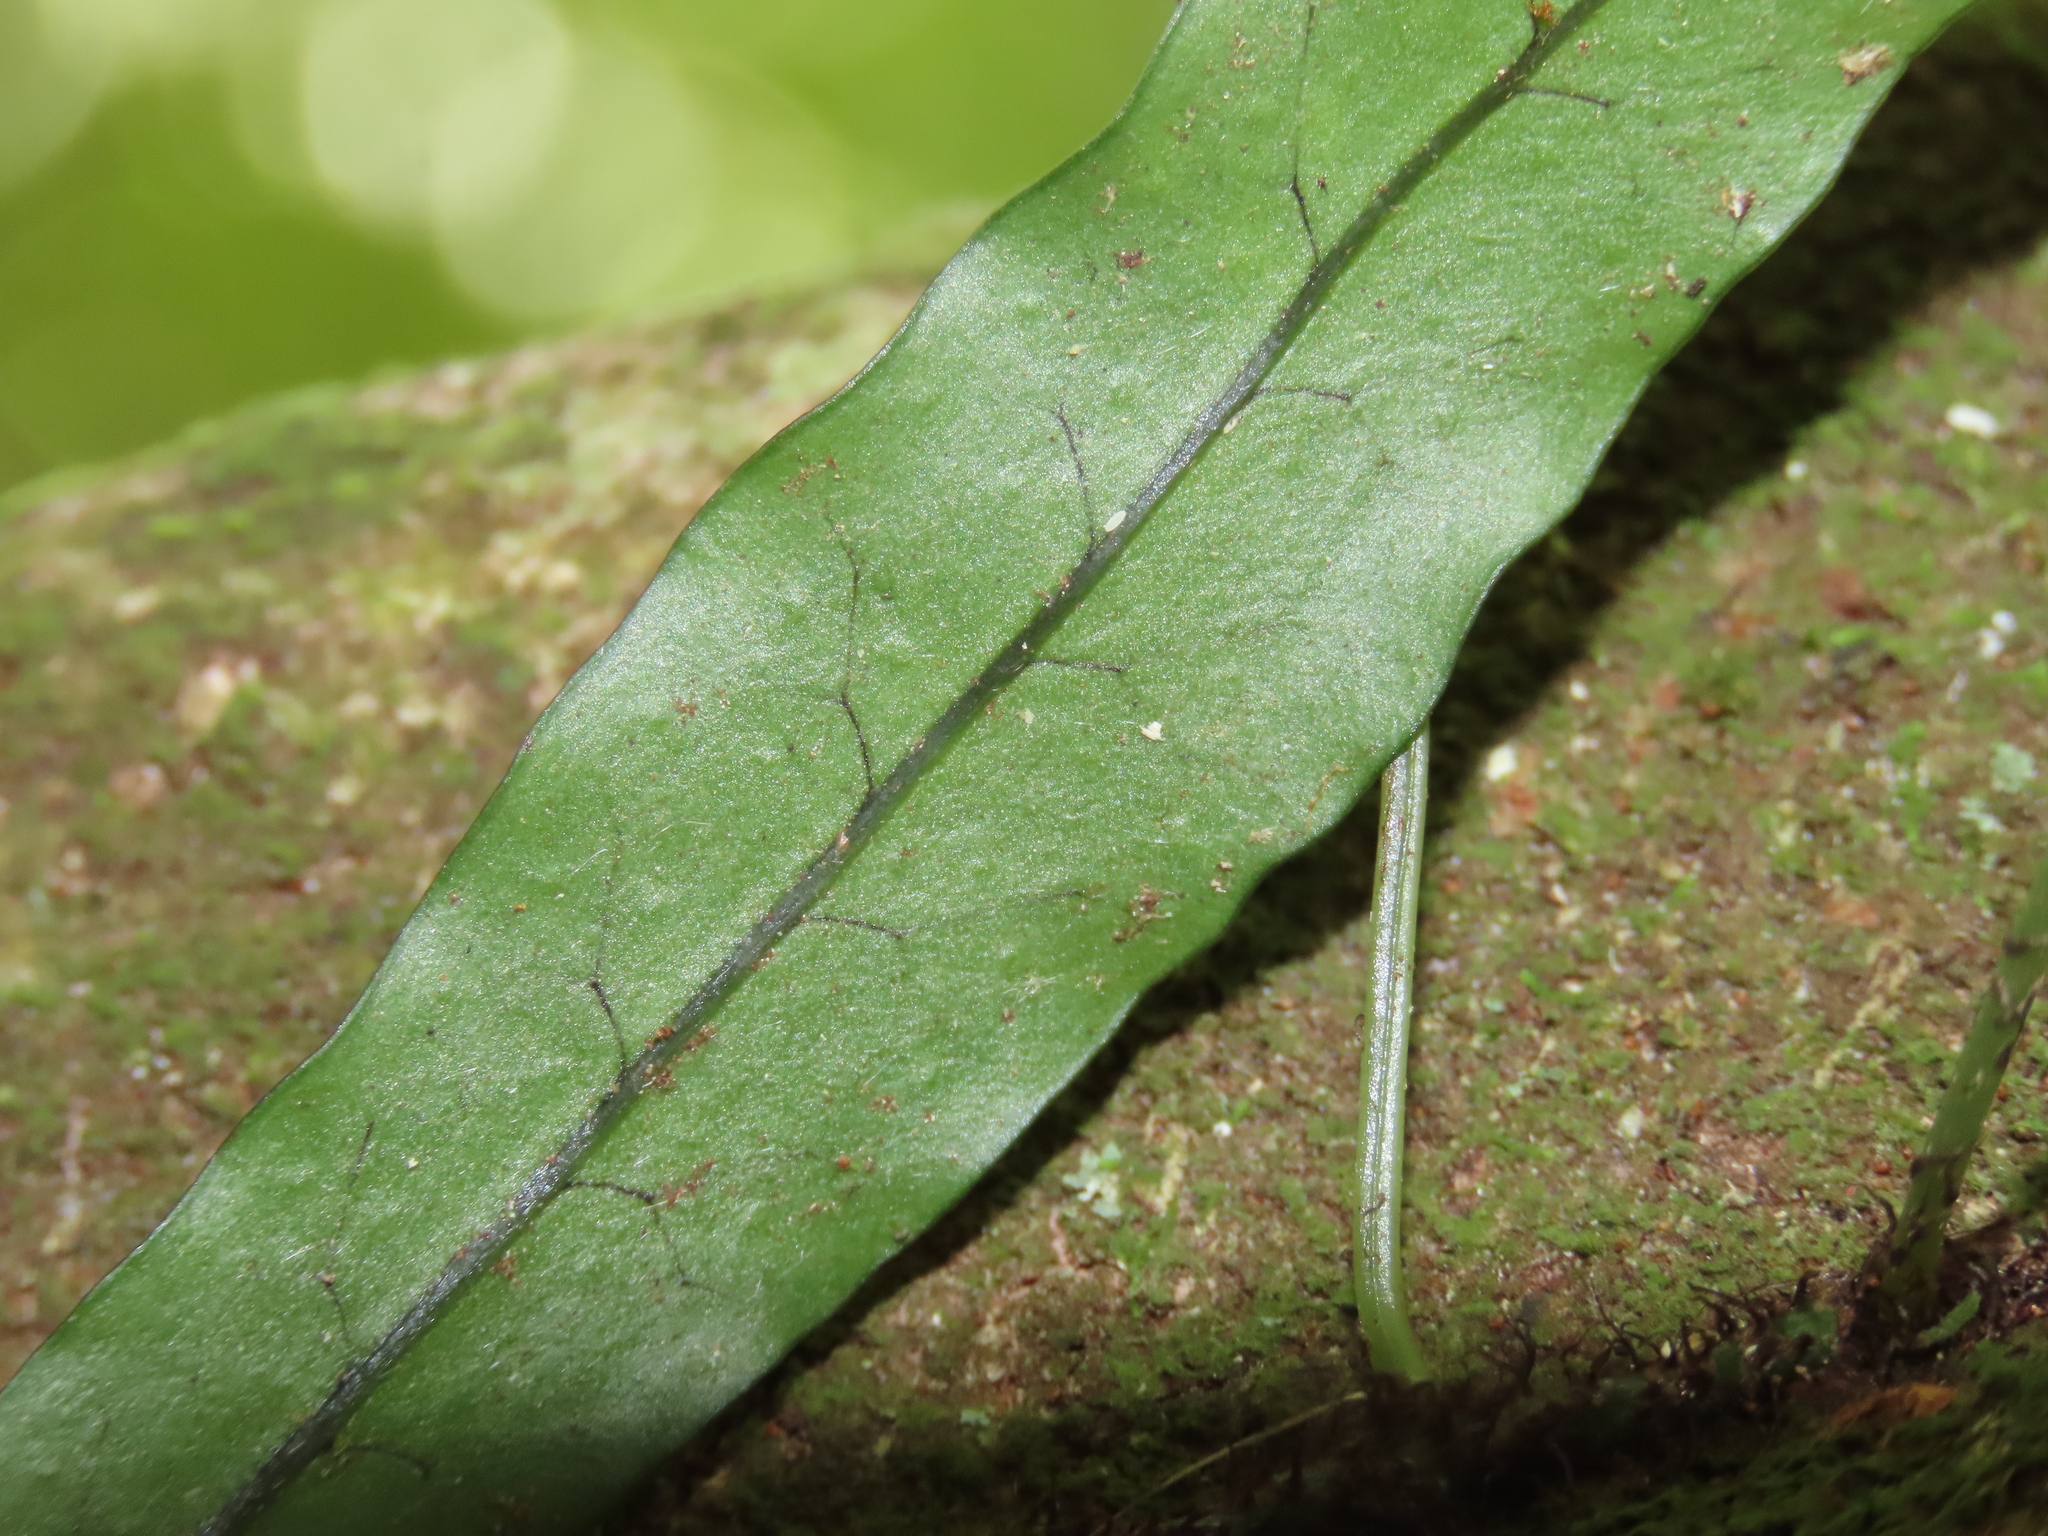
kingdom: Plantae
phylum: Tracheophyta
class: Polypodiopsida
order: Polypodiales
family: Polypodiaceae
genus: Lecanopteris
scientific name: Lecanopteris scandens
